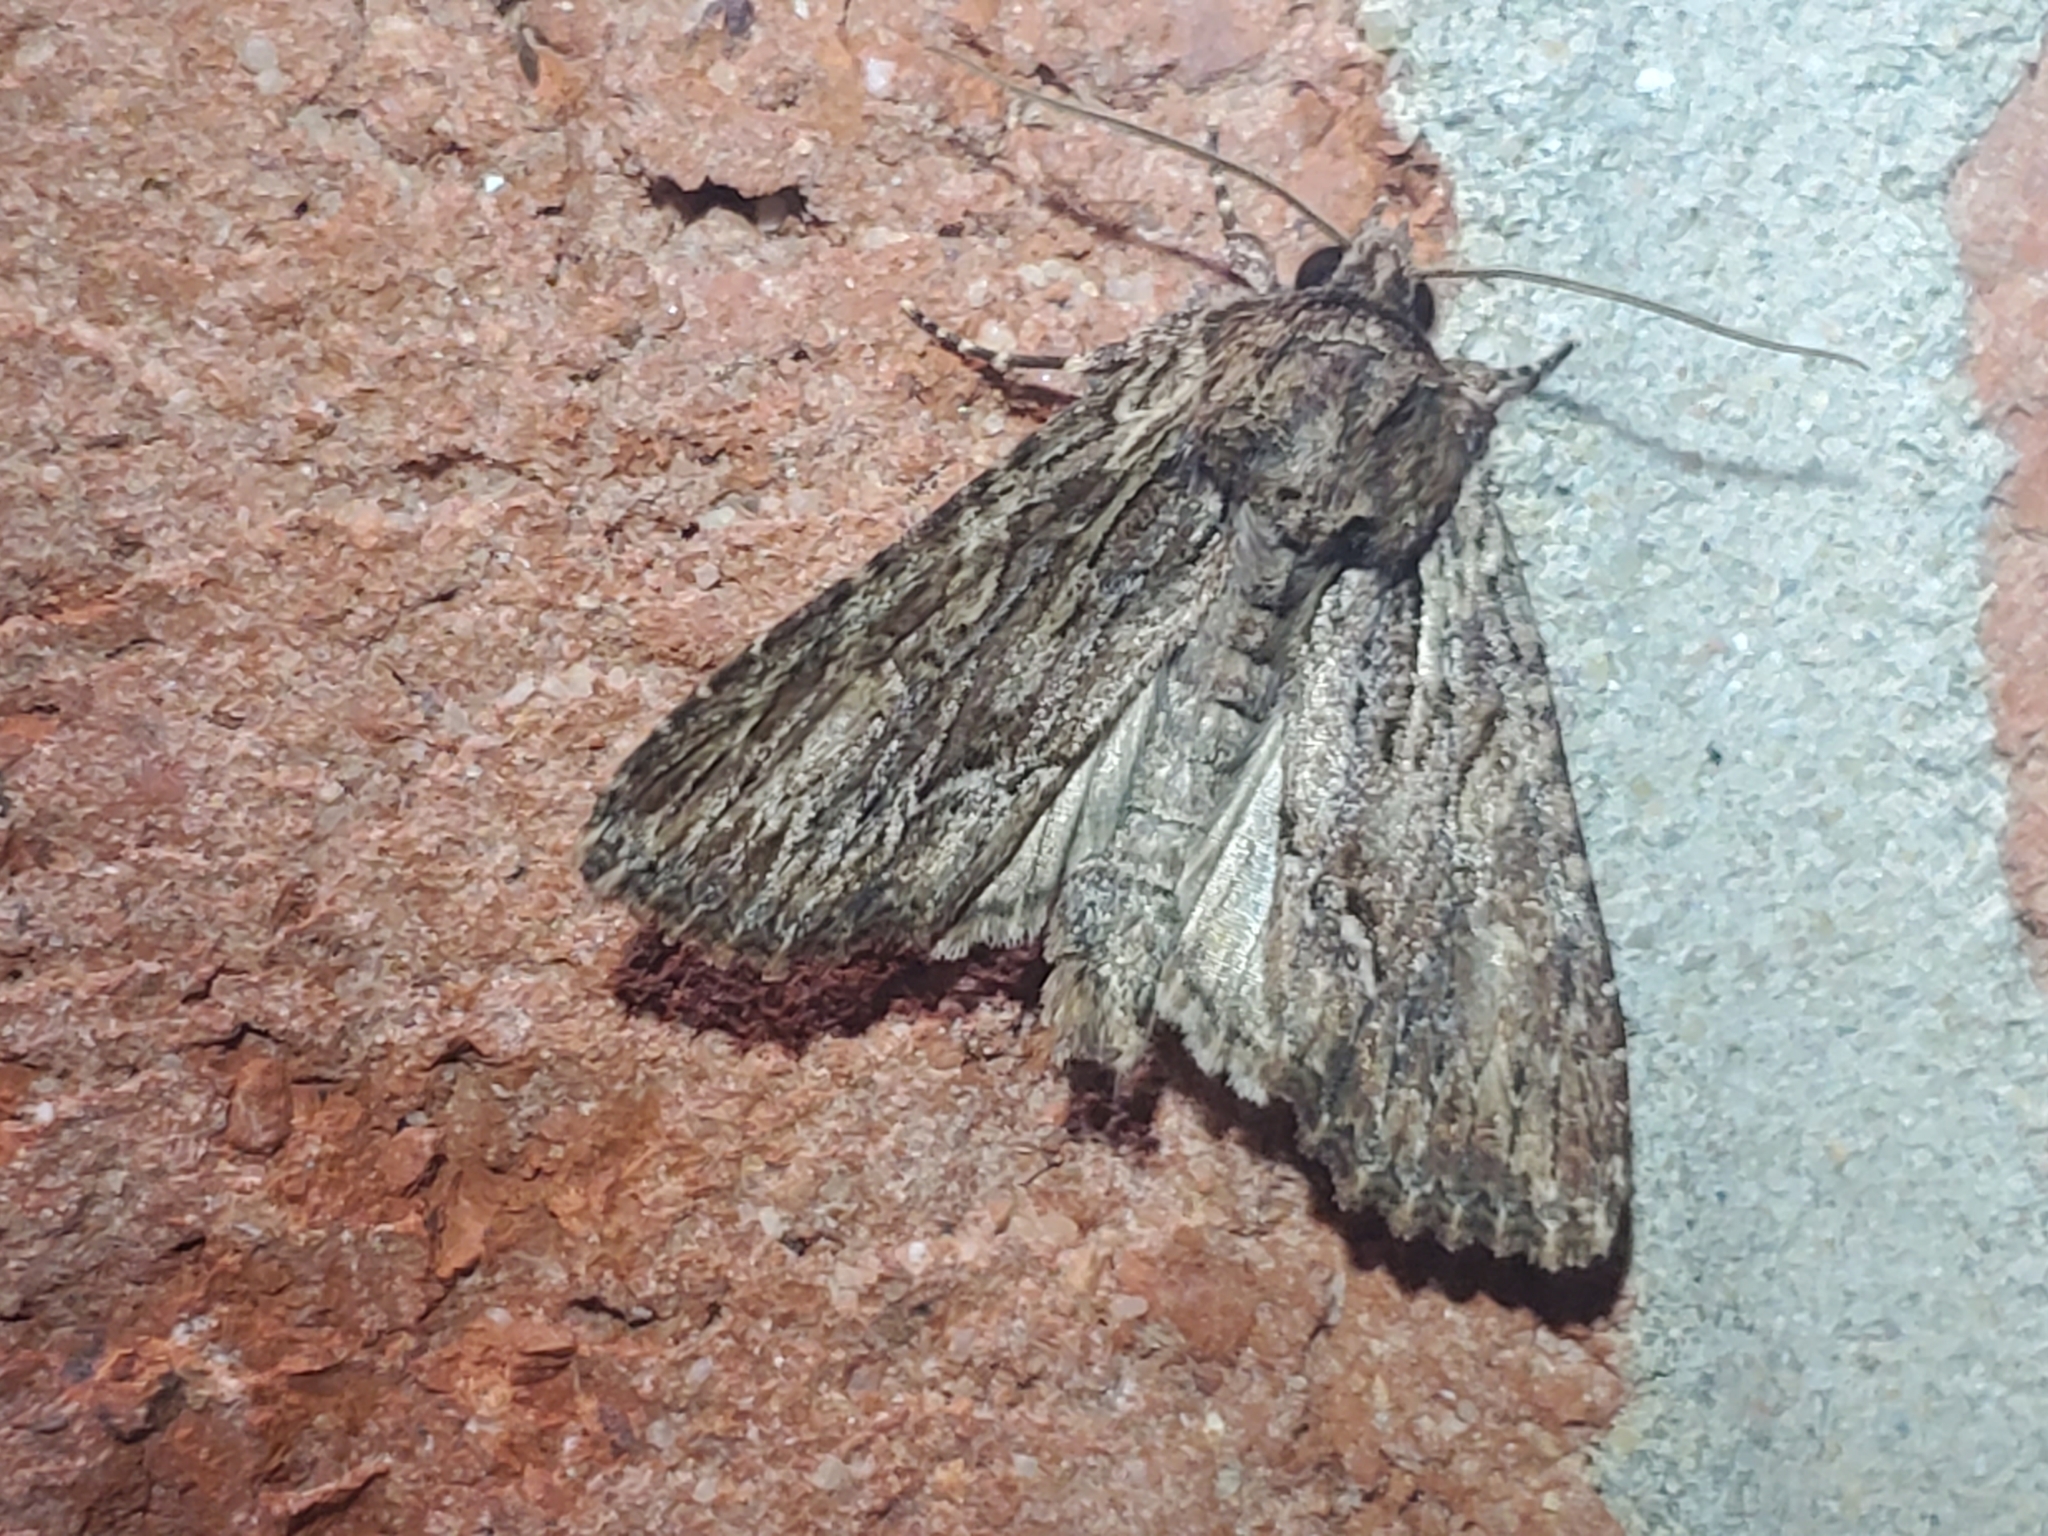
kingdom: Animalia
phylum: Arthropoda
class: Insecta
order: Lepidoptera
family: Noctuidae
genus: Achatia
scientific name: Achatia confusa
